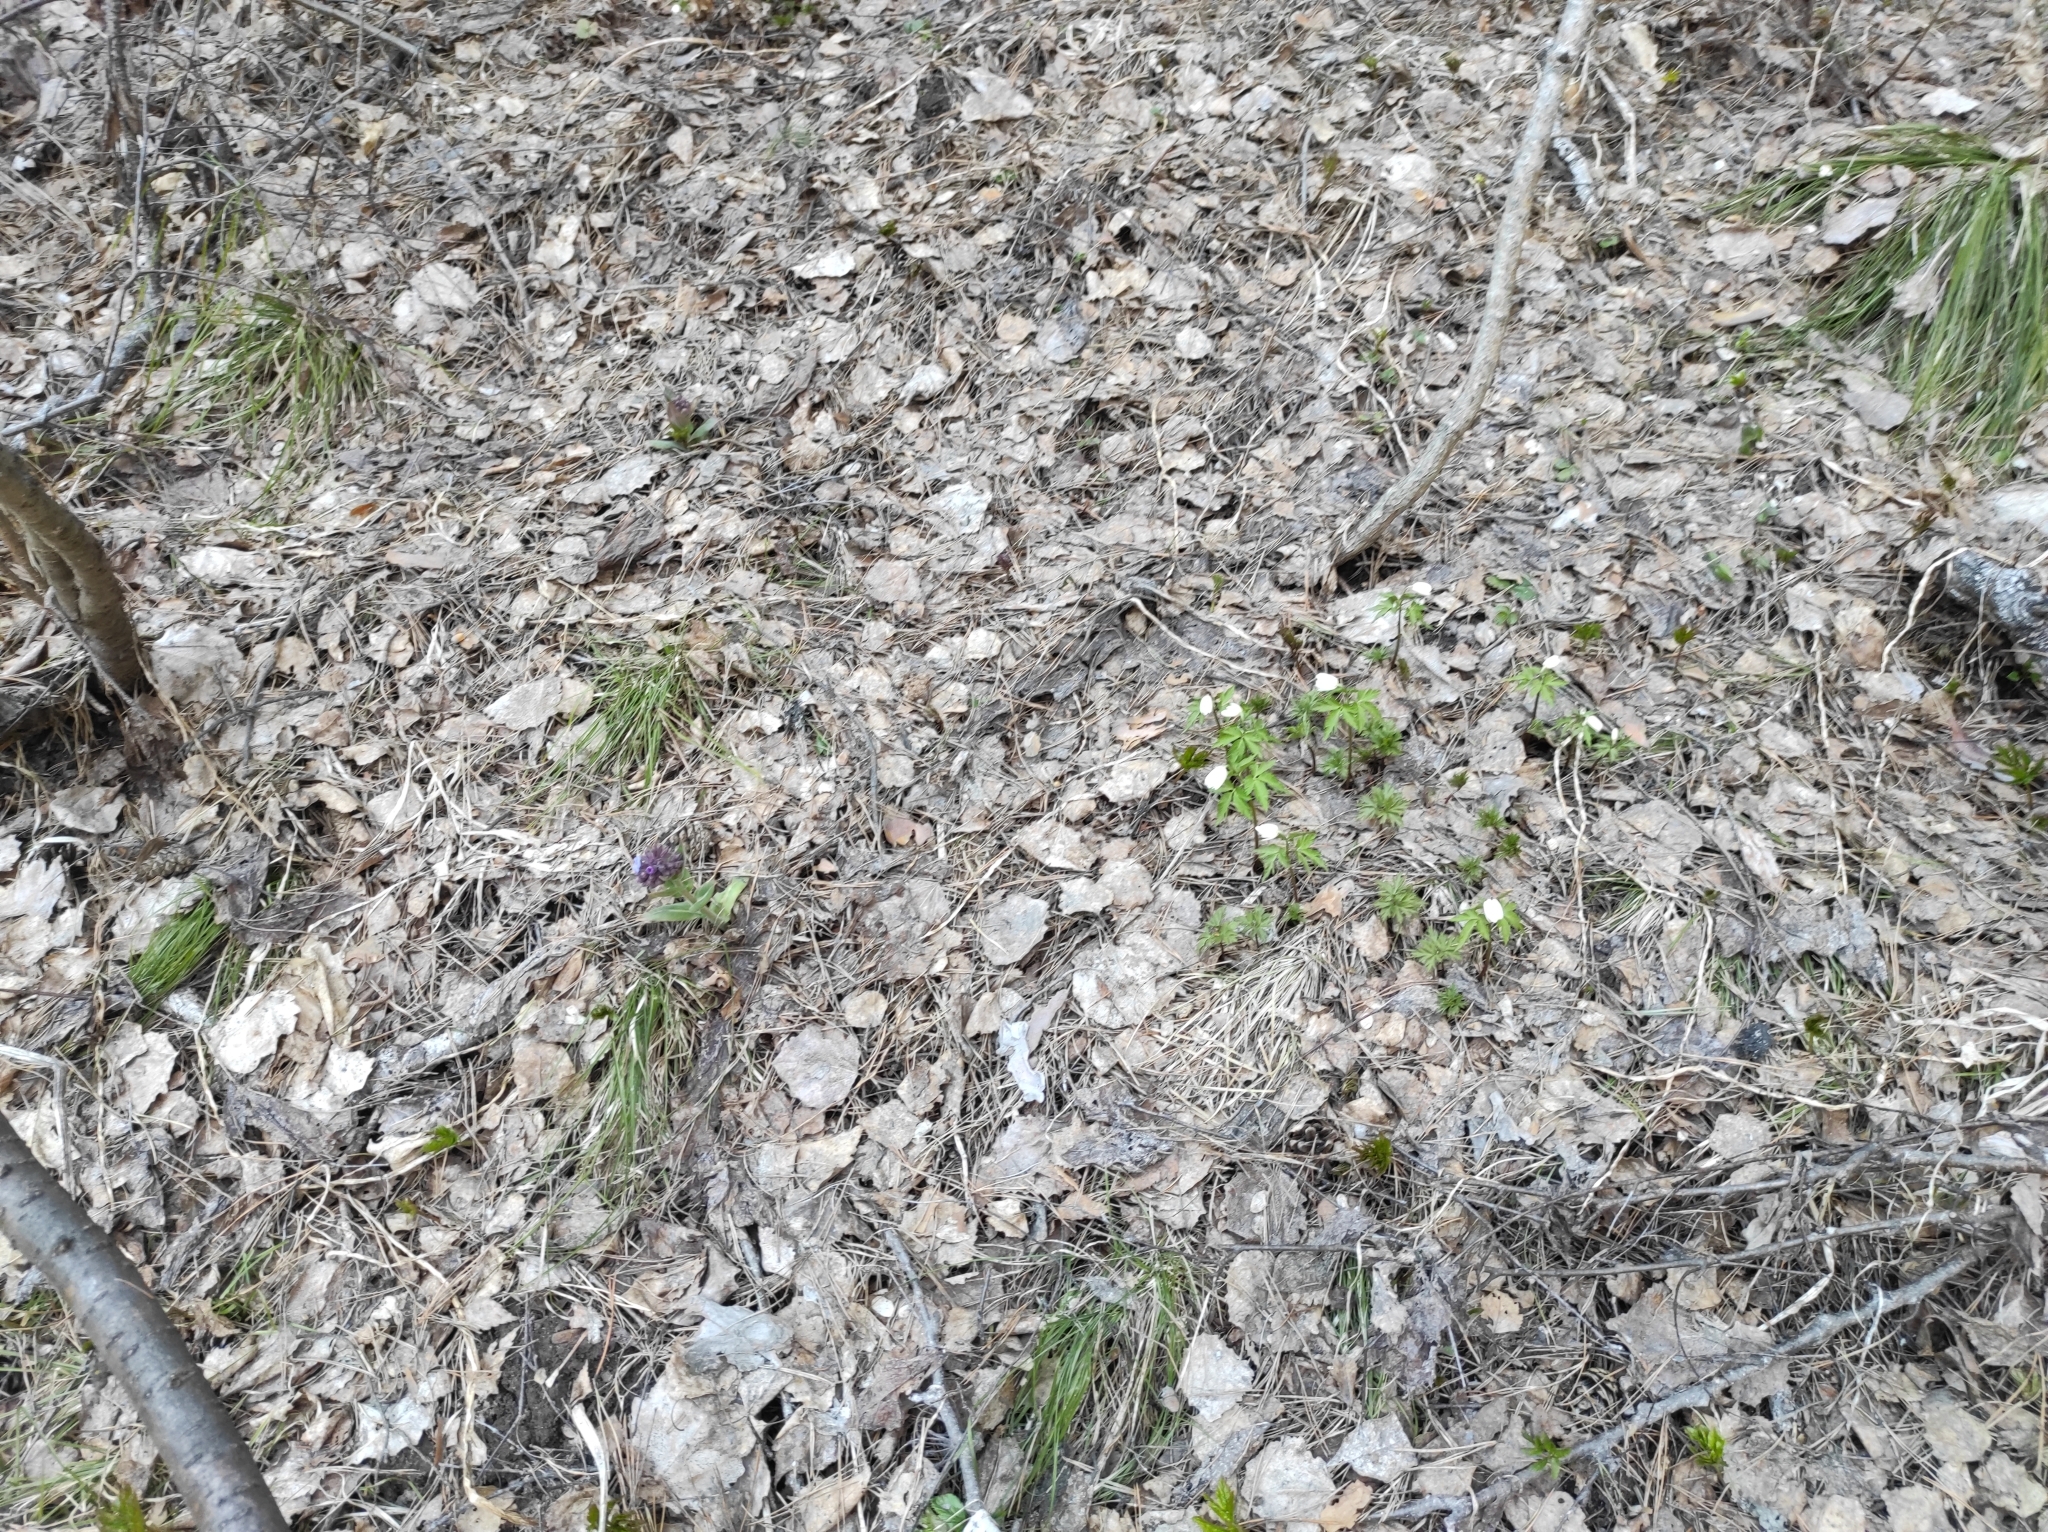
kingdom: Plantae
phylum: Tracheophyta
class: Magnoliopsida
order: Boraginales
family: Boraginaceae
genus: Pulmonaria
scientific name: Pulmonaria mollis
